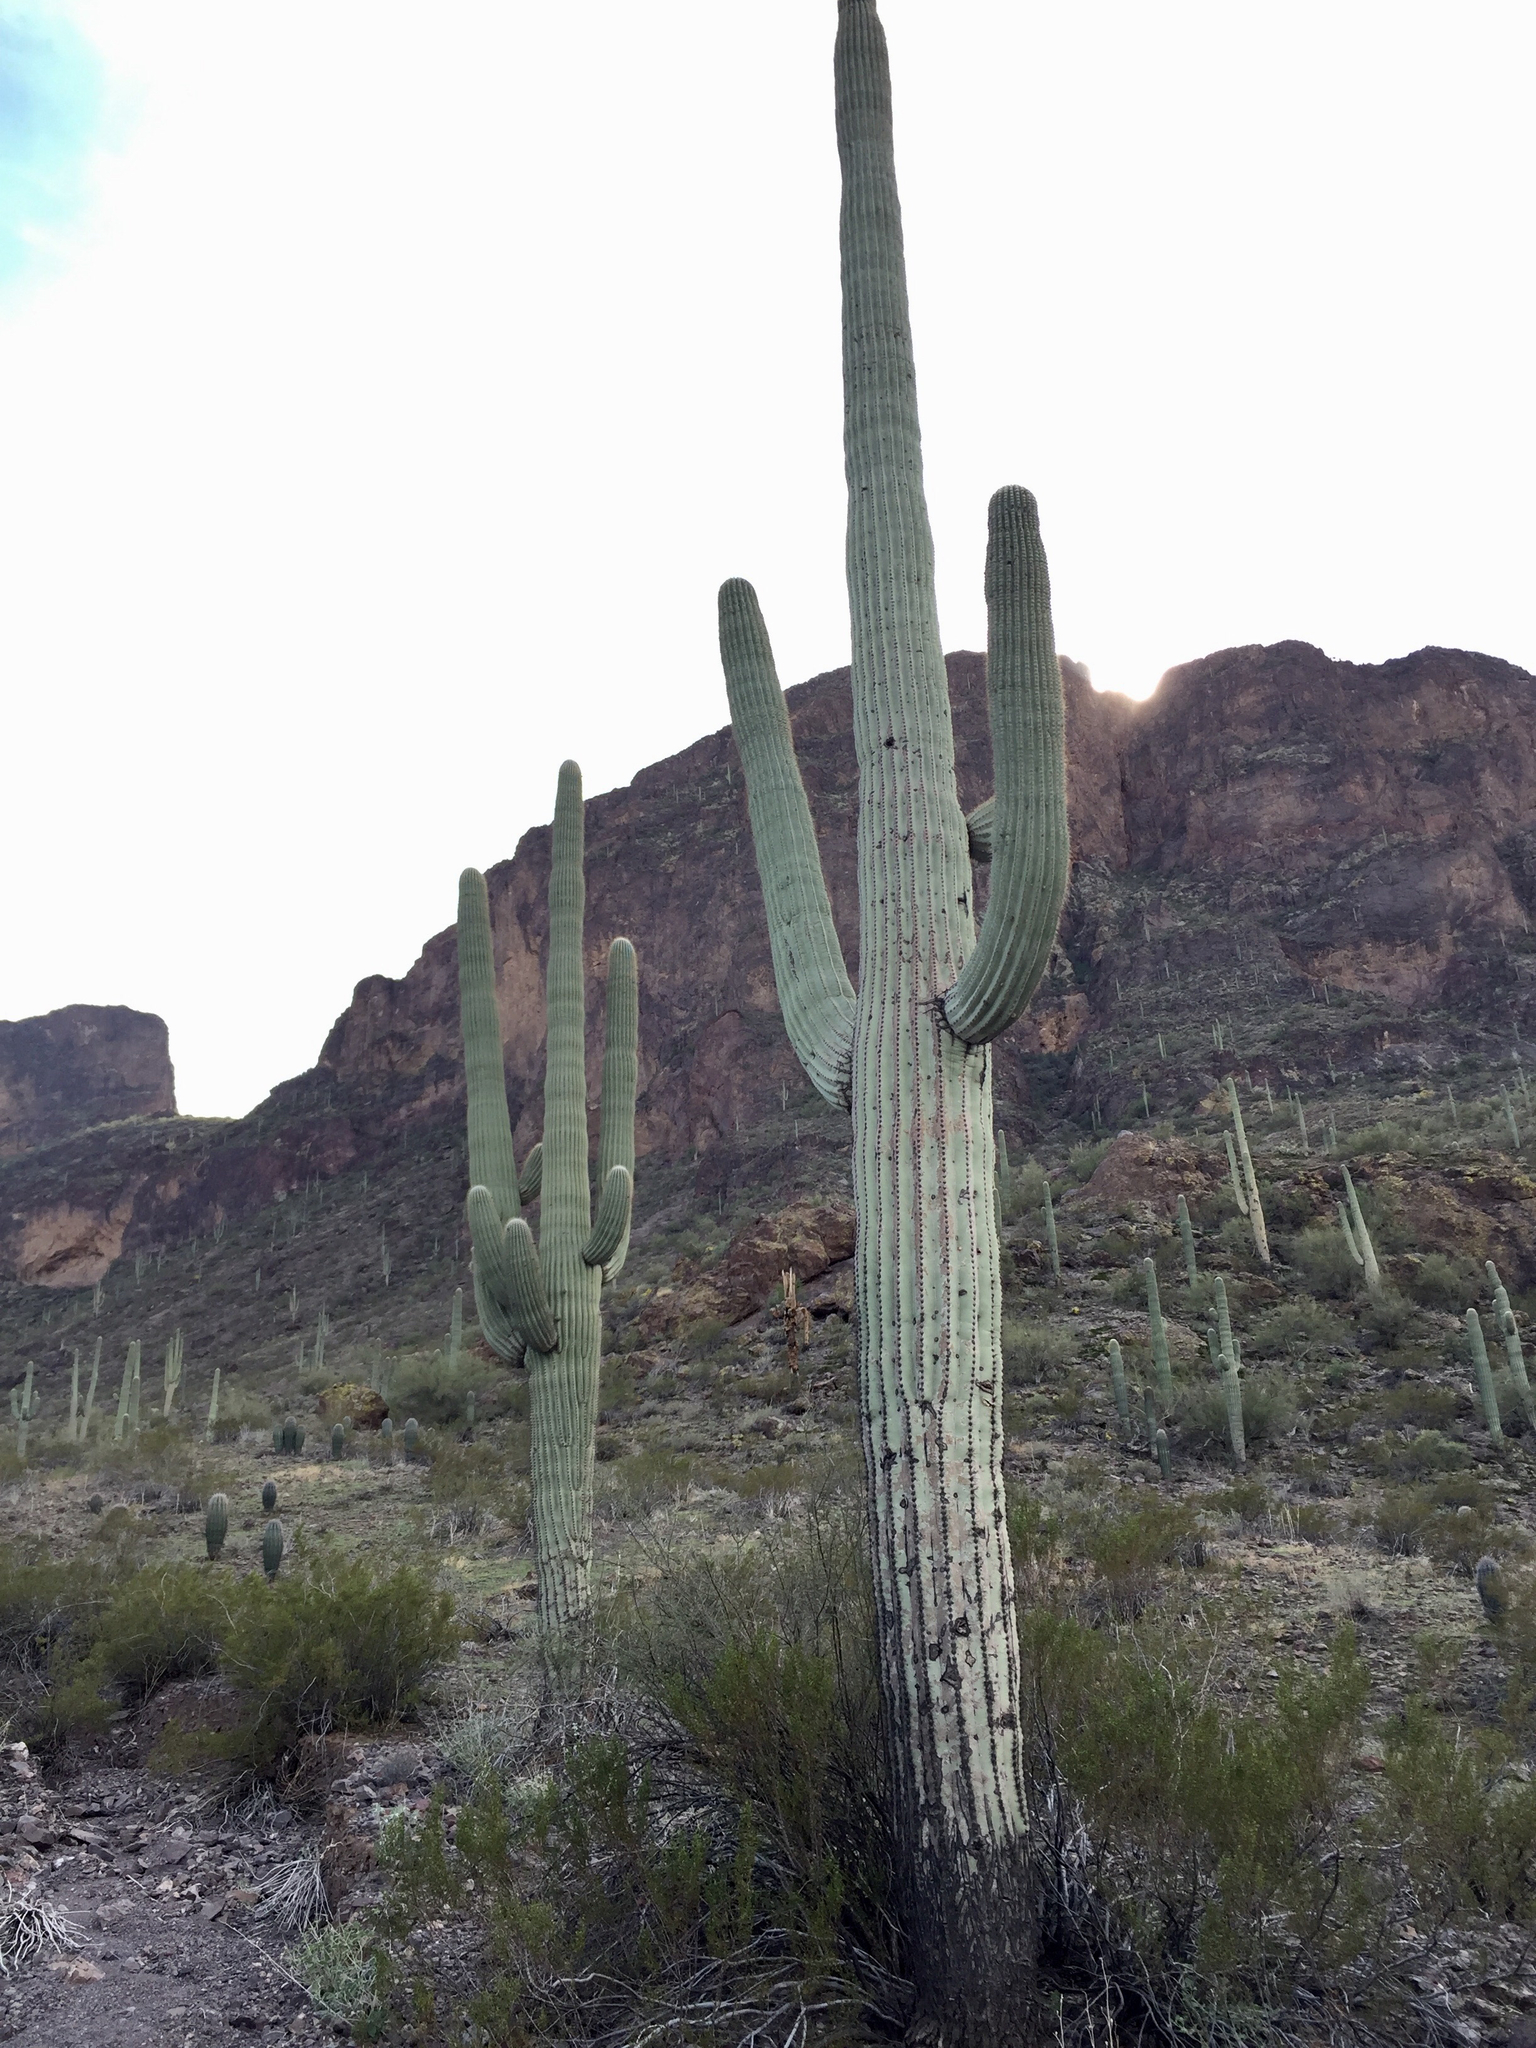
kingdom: Plantae
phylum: Tracheophyta
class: Magnoliopsida
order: Caryophyllales
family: Cactaceae
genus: Carnegiea
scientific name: Carnegiea gigantea
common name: Saguaro
